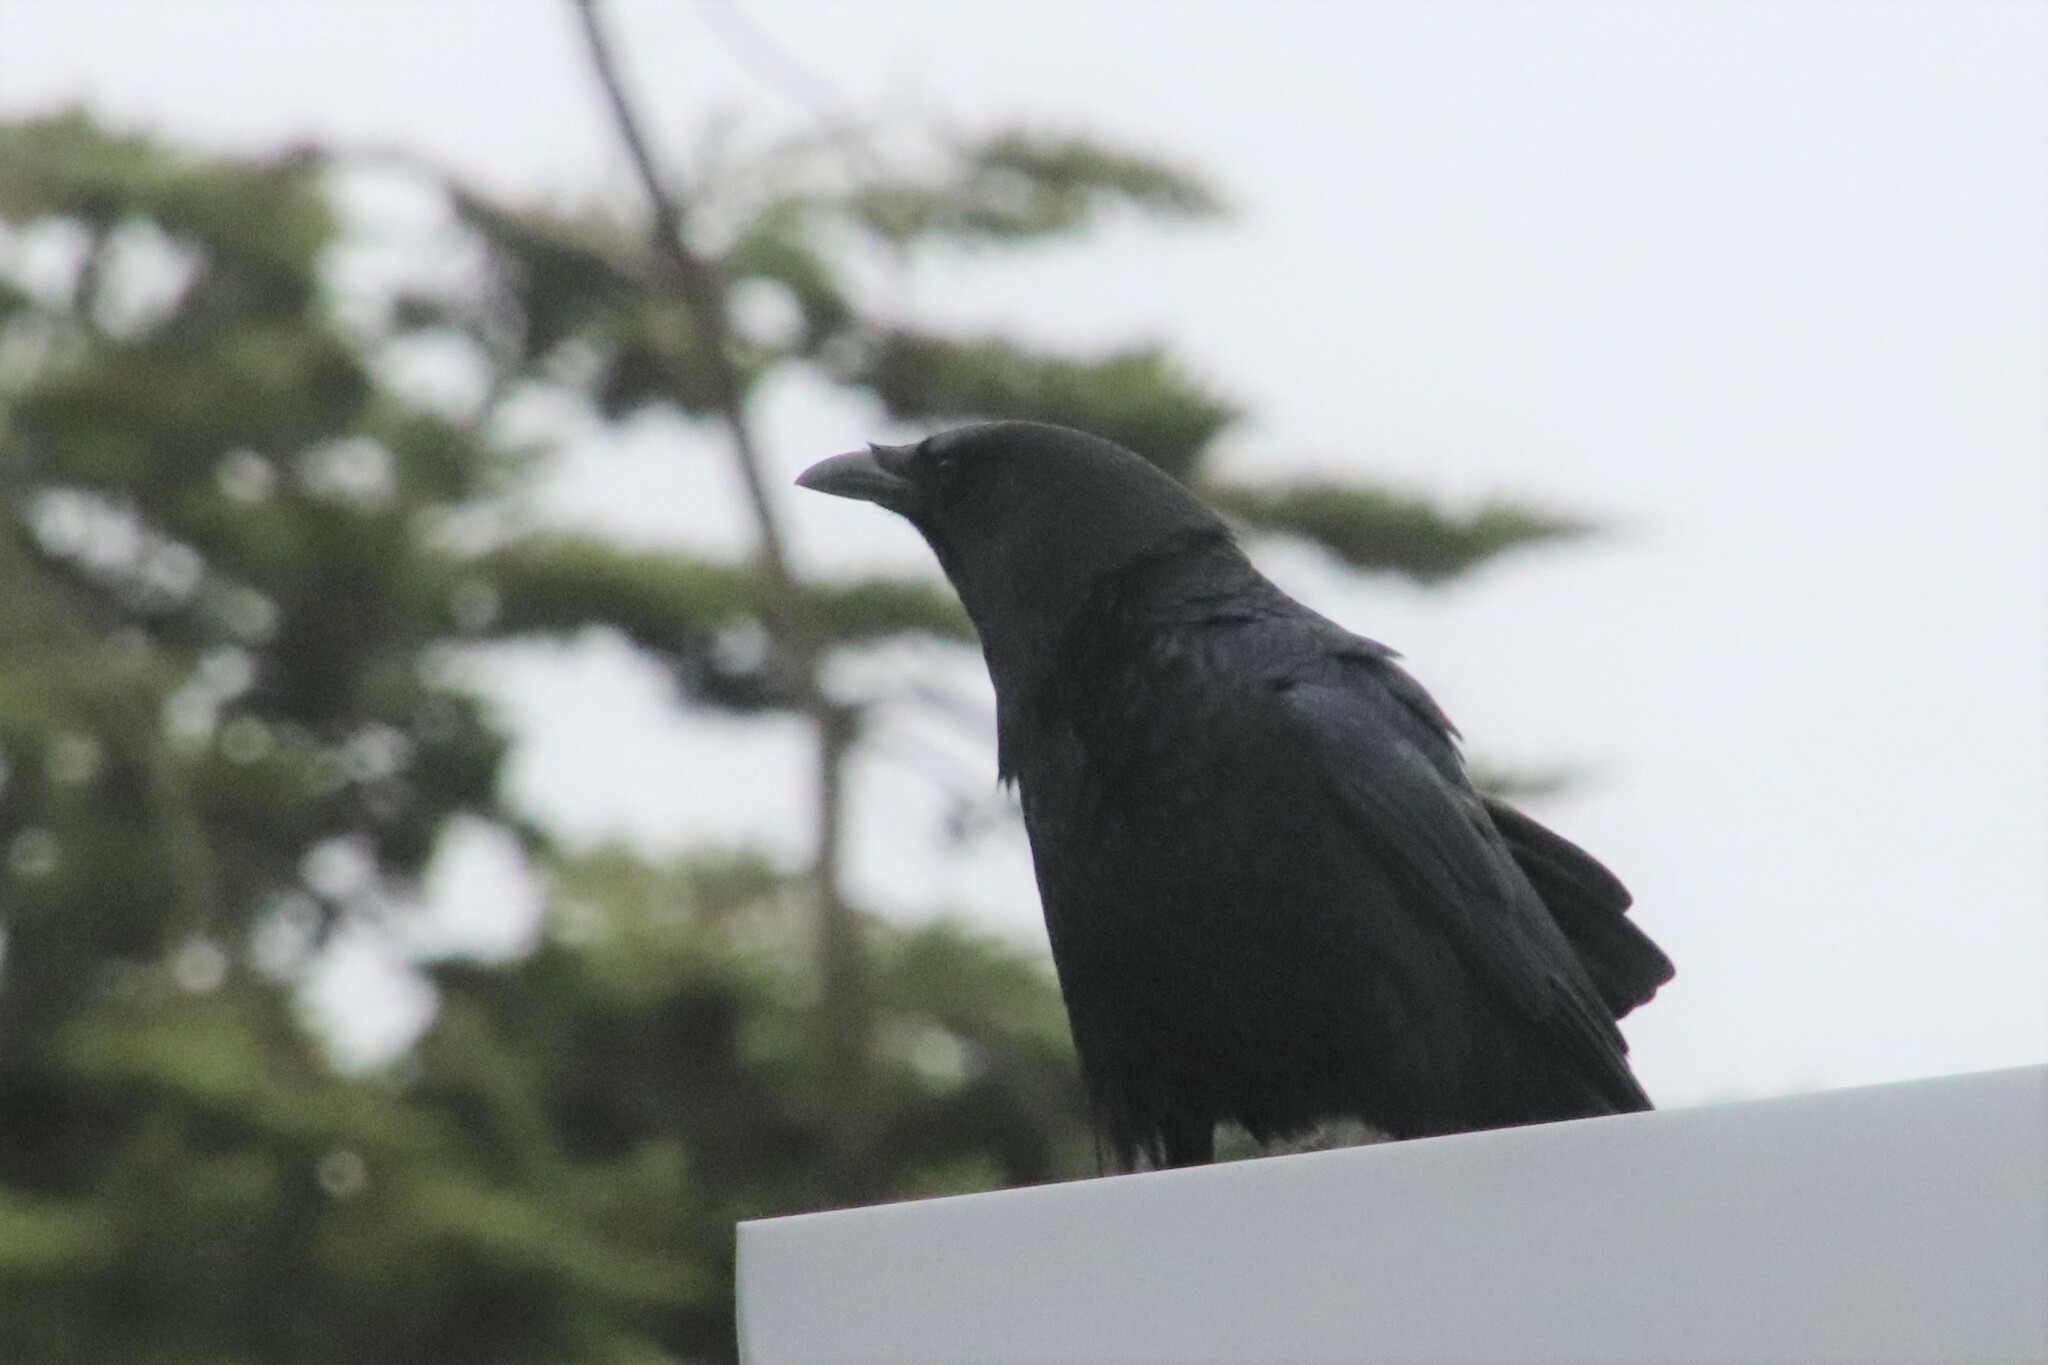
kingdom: Animalia
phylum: Chordata
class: Aves
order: Passeriformes
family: Corvidae
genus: Corvus
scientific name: Corvus brachyrhynchos
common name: American crow
